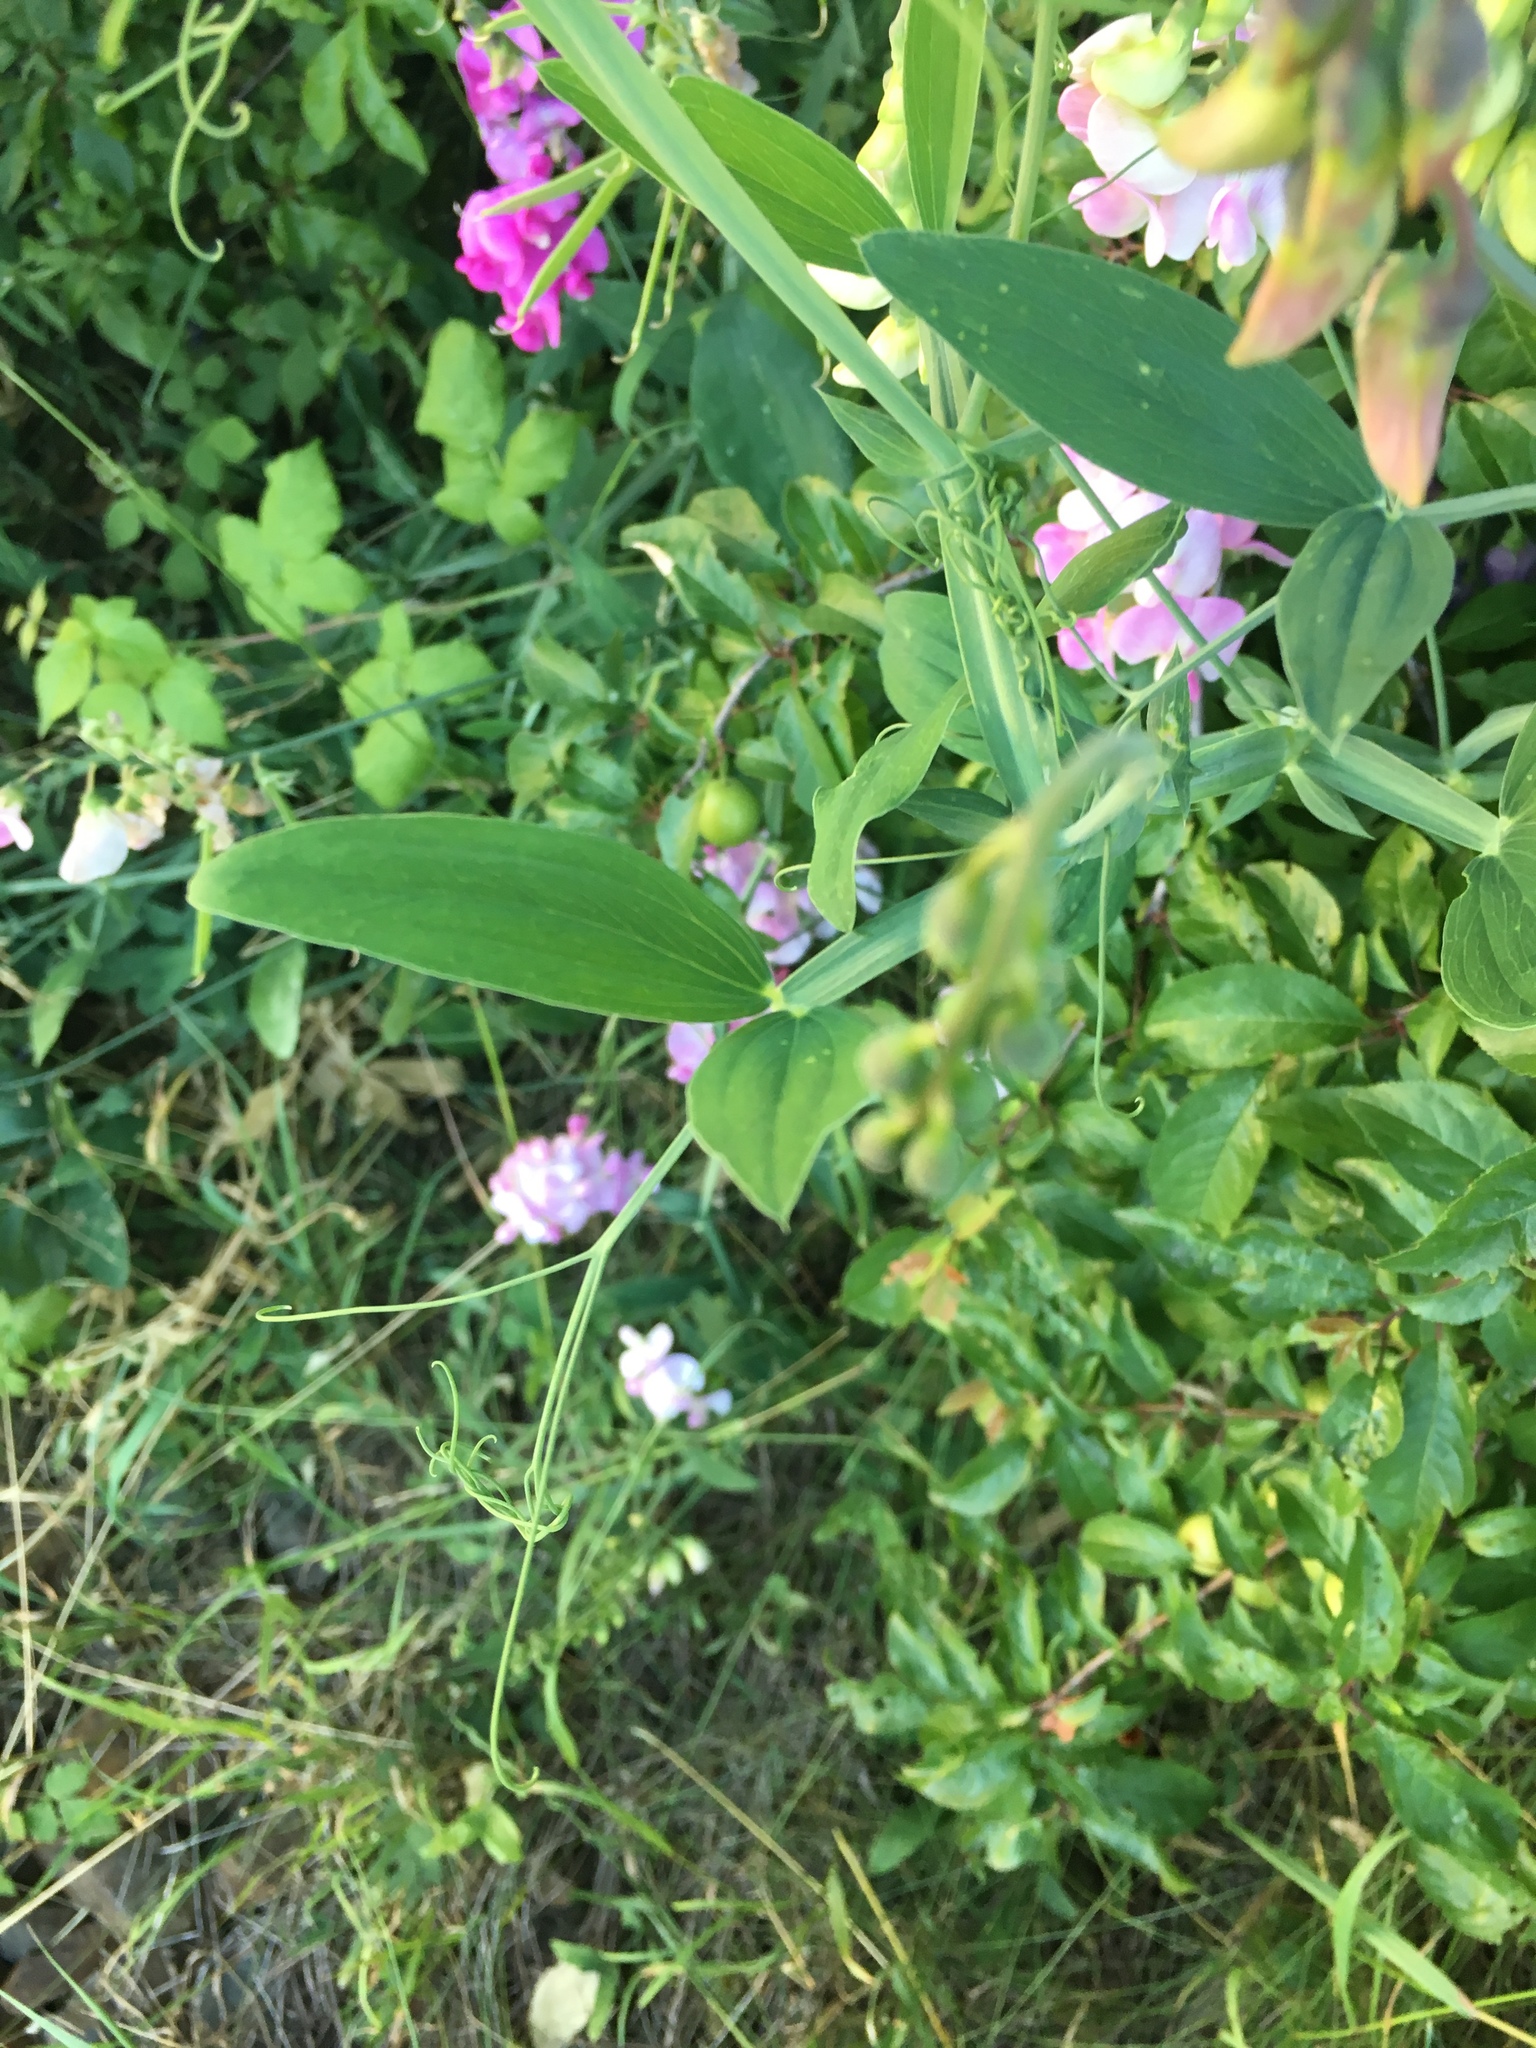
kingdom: Plantae
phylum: Tracheophyta
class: Magnoliopsida
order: Fabales
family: Fabaceae
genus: Lathyrus
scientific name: Lathyrus latifolius
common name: Perennial pea
